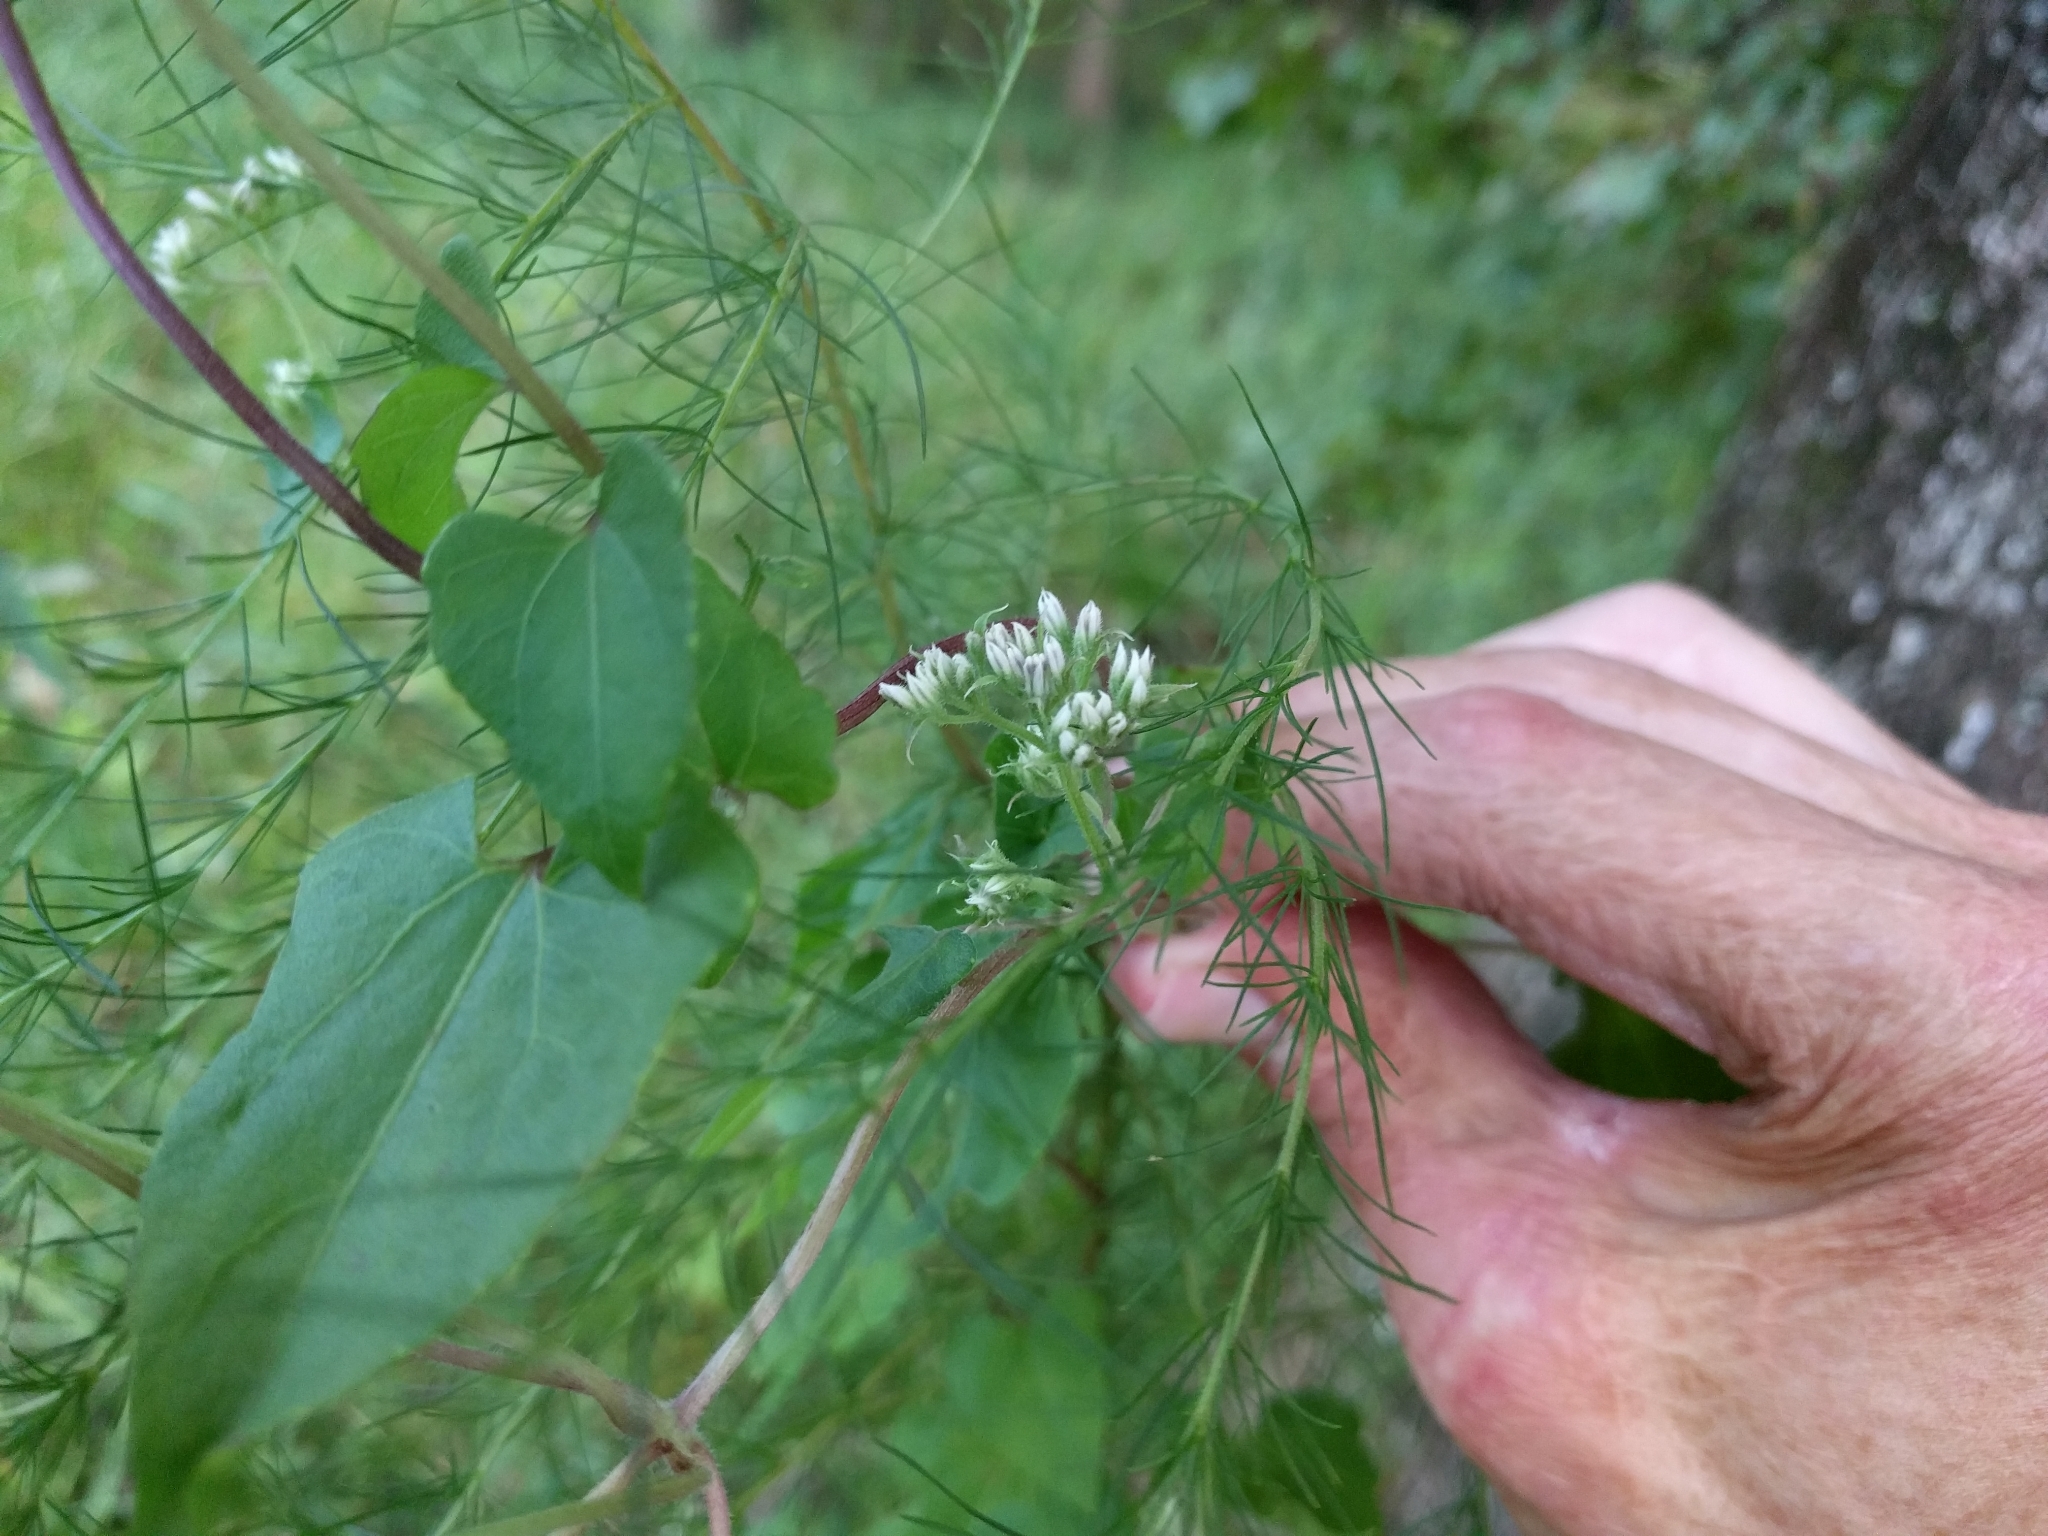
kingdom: Plantae
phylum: Tracheophyta
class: Magnoliopsida
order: Asterales
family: Asteraceae
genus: Mikania
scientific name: Mikania scandens
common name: Climbing hempvine
